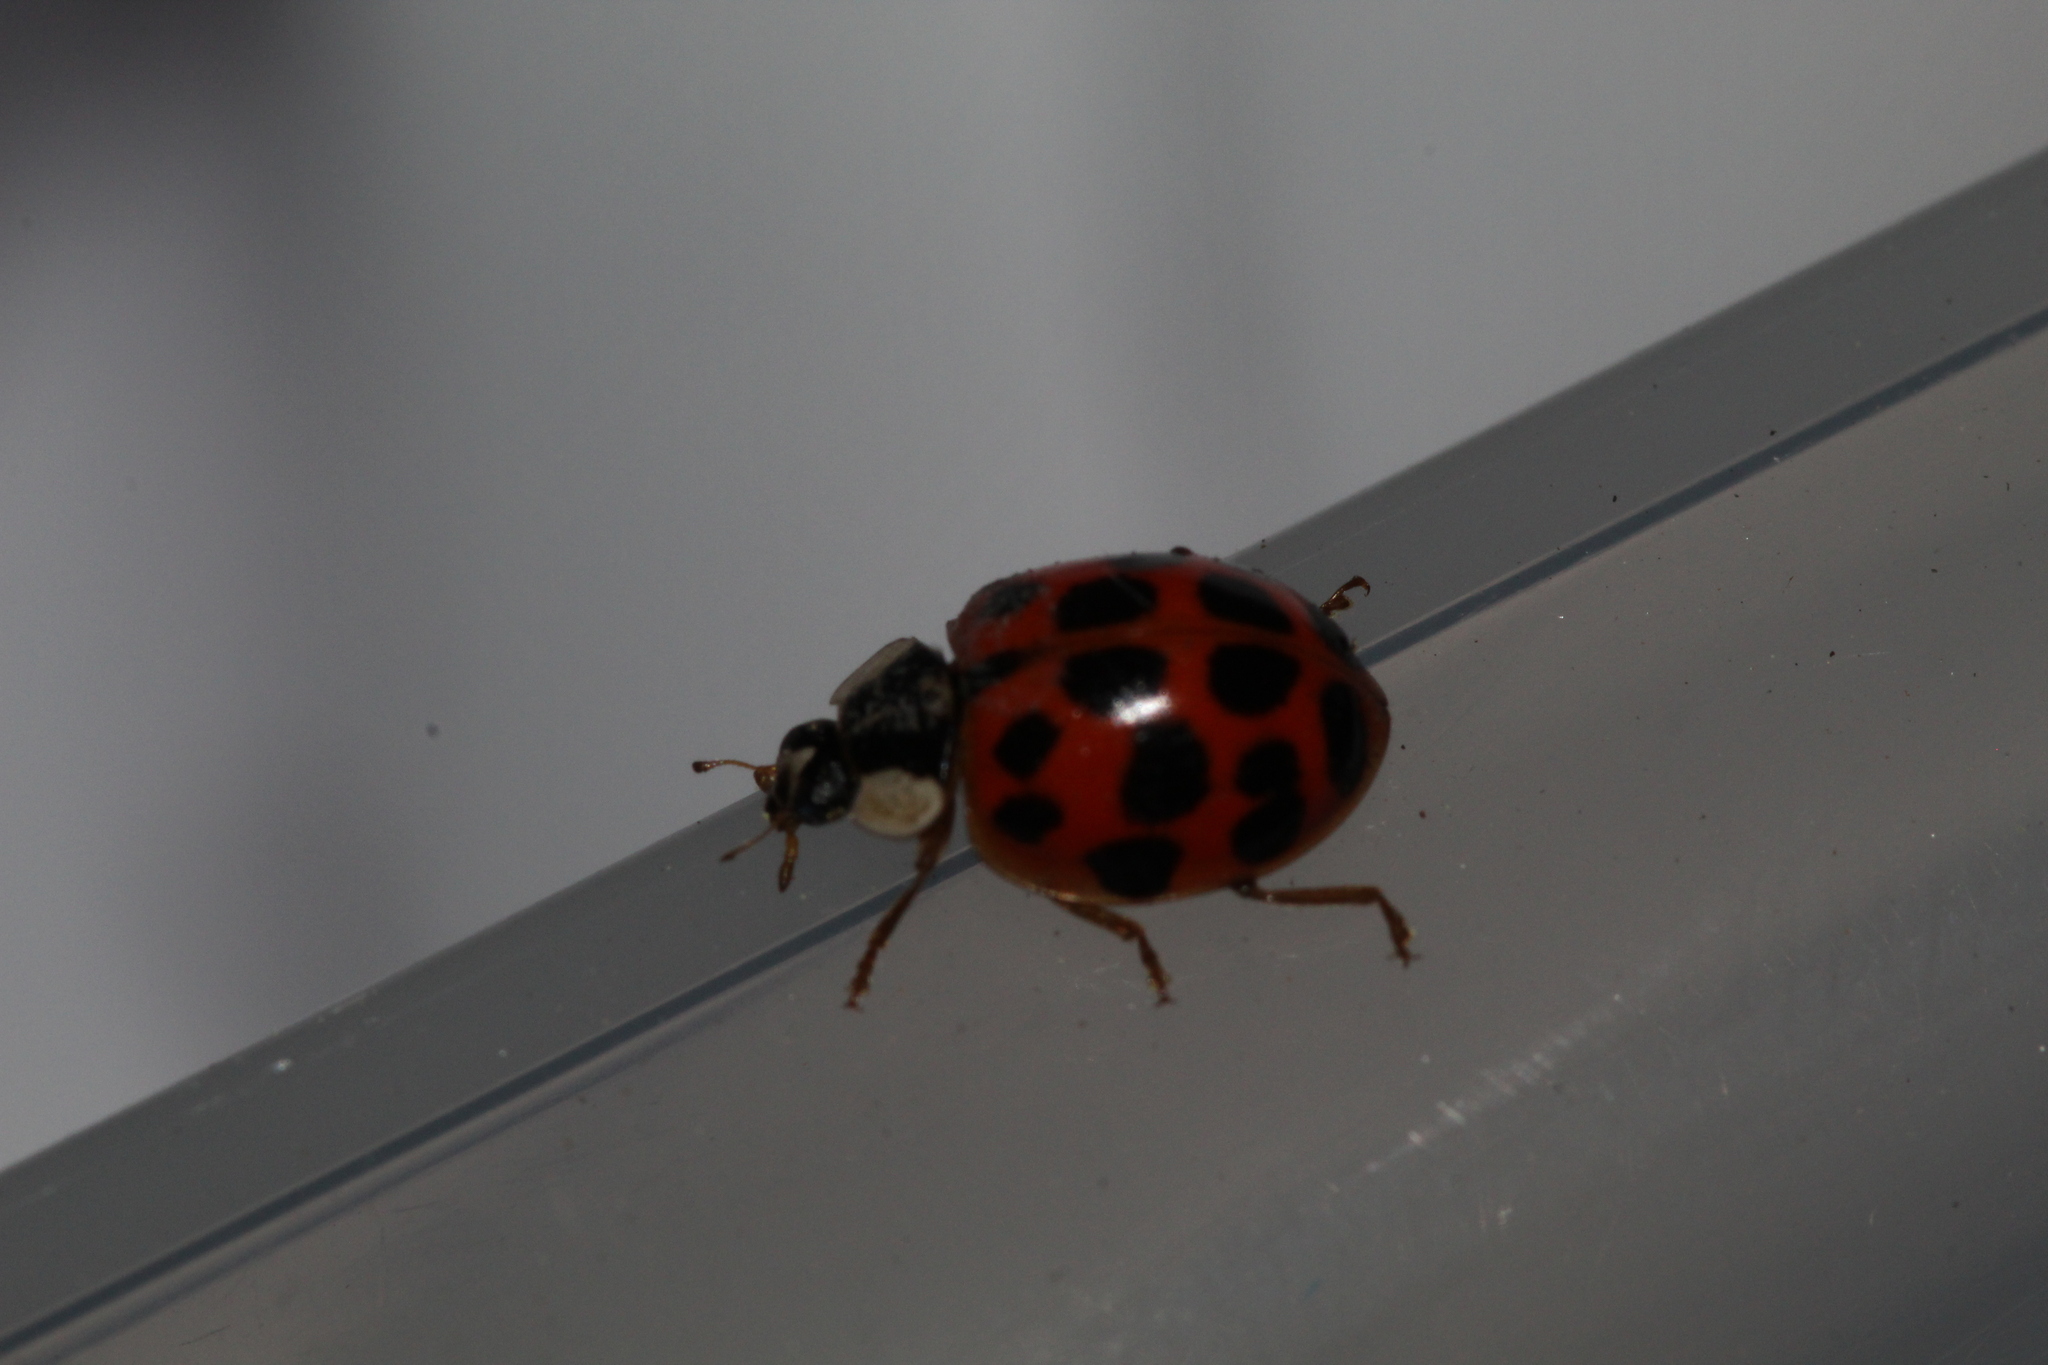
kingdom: Animalia
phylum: Arthropoda
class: Insecta
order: Coleoptera
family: Coccinellidae
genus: Harmonia
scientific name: Harmonia axyridis
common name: Harlequin ladybird
